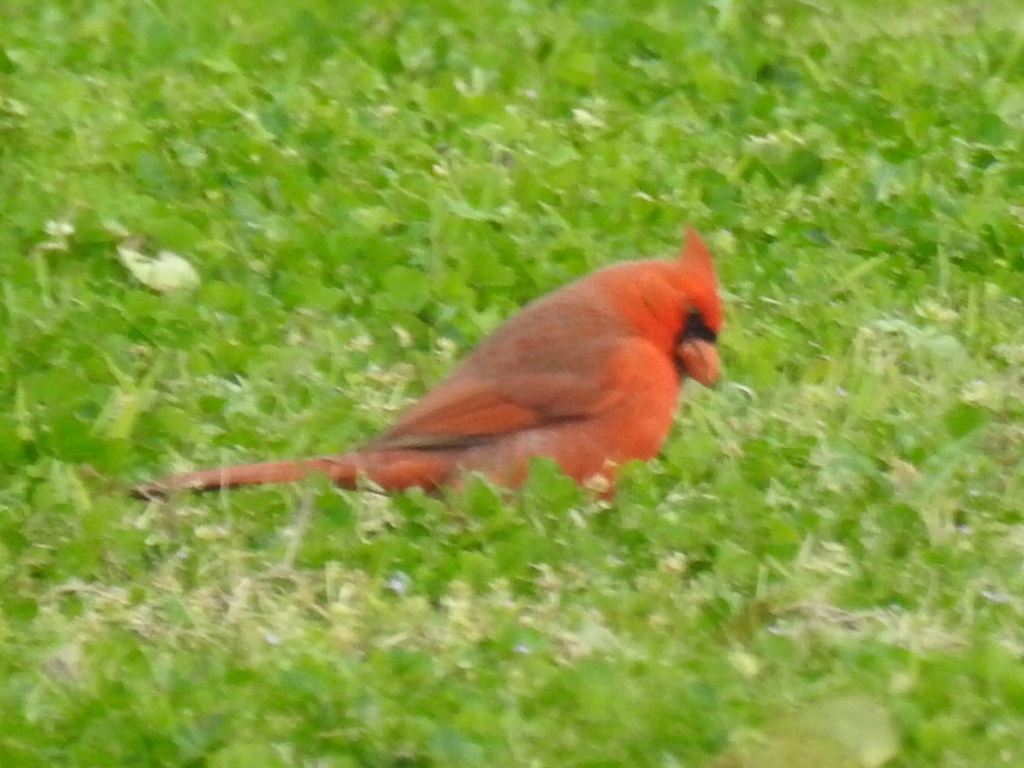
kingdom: Animalia
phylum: Chordata
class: Aves
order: Passeriformes
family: Cardinalidae
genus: Cardinalis
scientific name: Cardinalis cardinalis
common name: Northern cardinal
